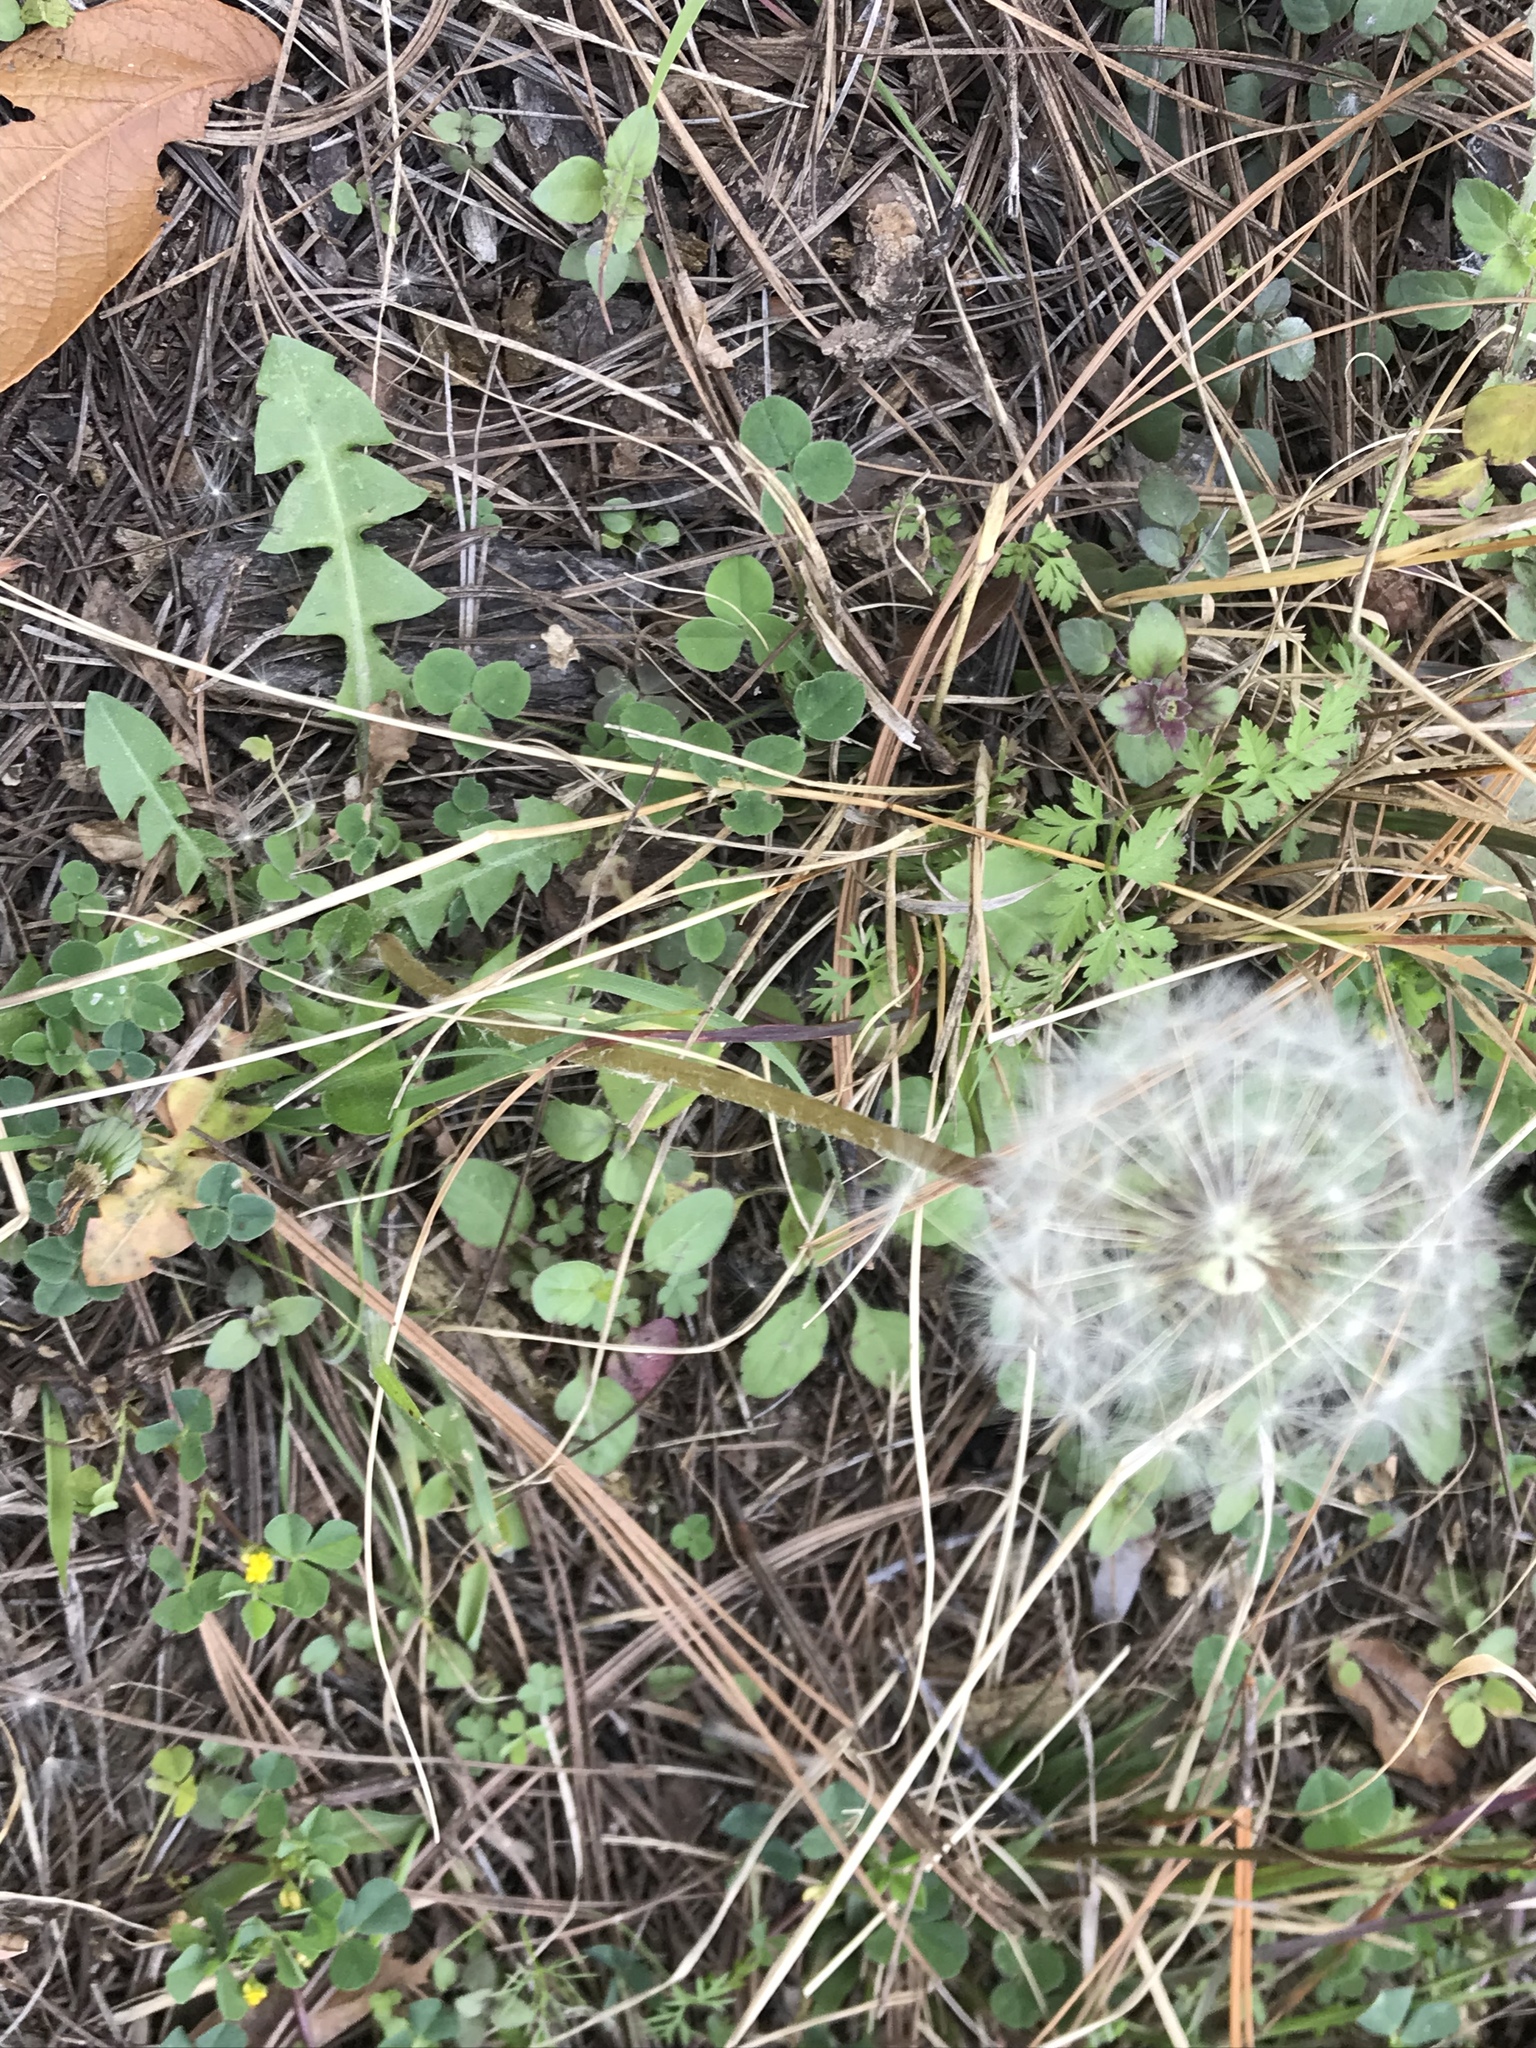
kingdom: Plantae
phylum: Tracheophyta
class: Magnoliopsida
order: Asterales
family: Asteraceae
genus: Taraxacum
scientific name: Taraxacum officinale
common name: Common dandelion
